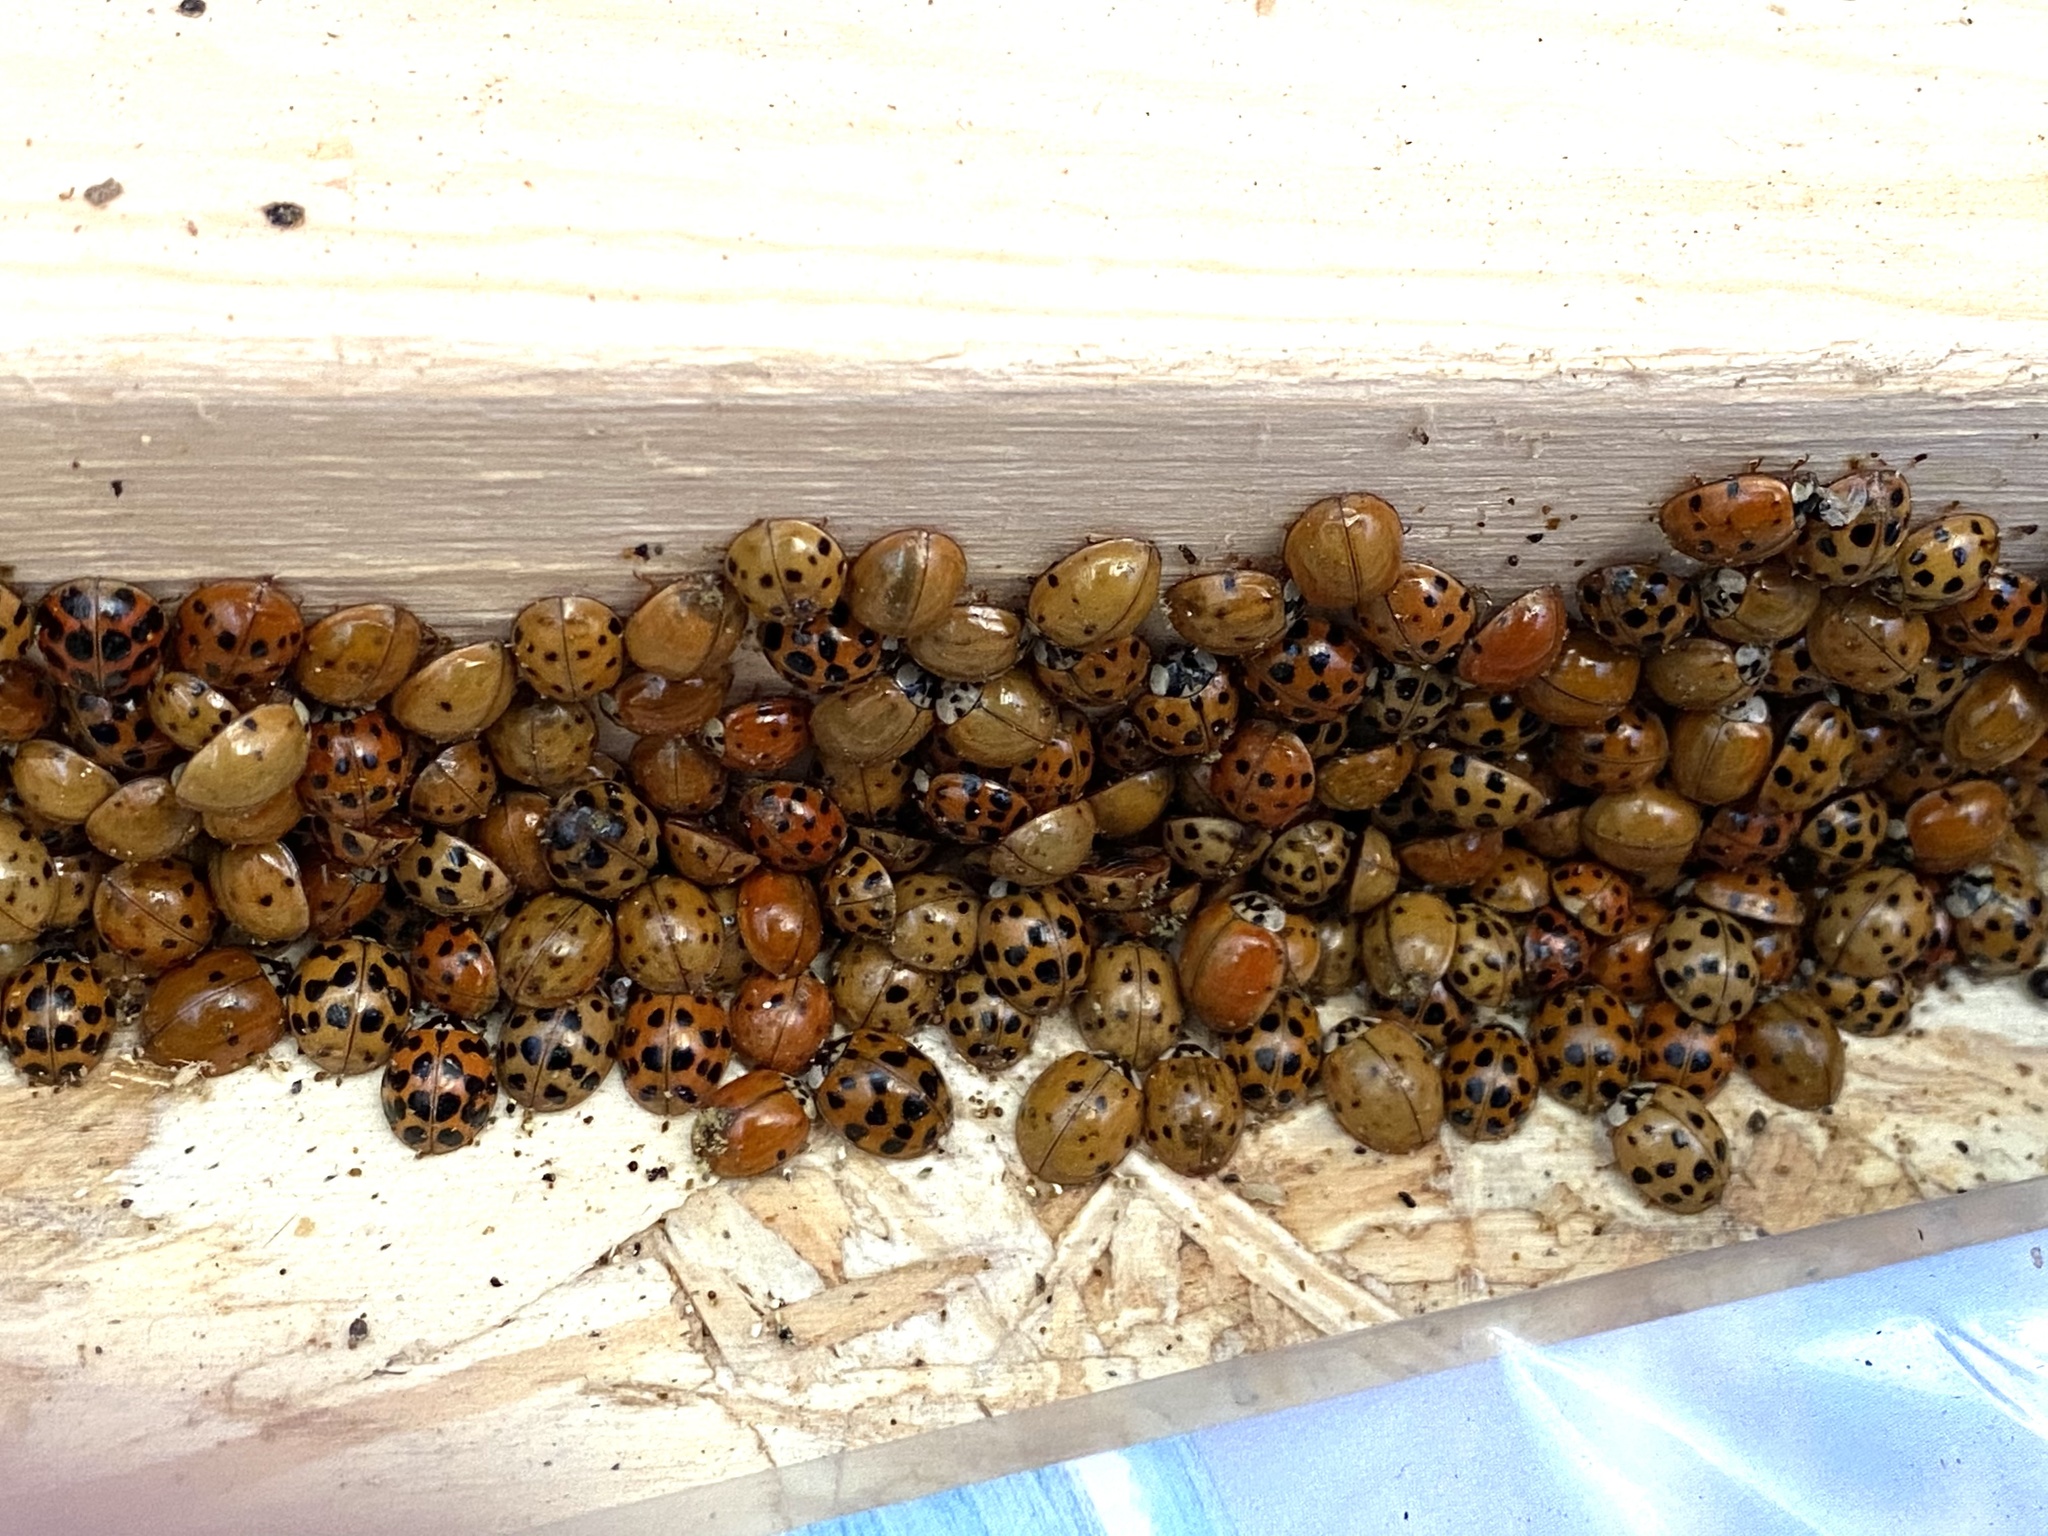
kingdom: Animalia
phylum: Arthropoda
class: Insecta
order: Coleoptera
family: Coccinellidae
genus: Harmonia
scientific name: Harmonia axyridis
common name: Harlequin ladybird
